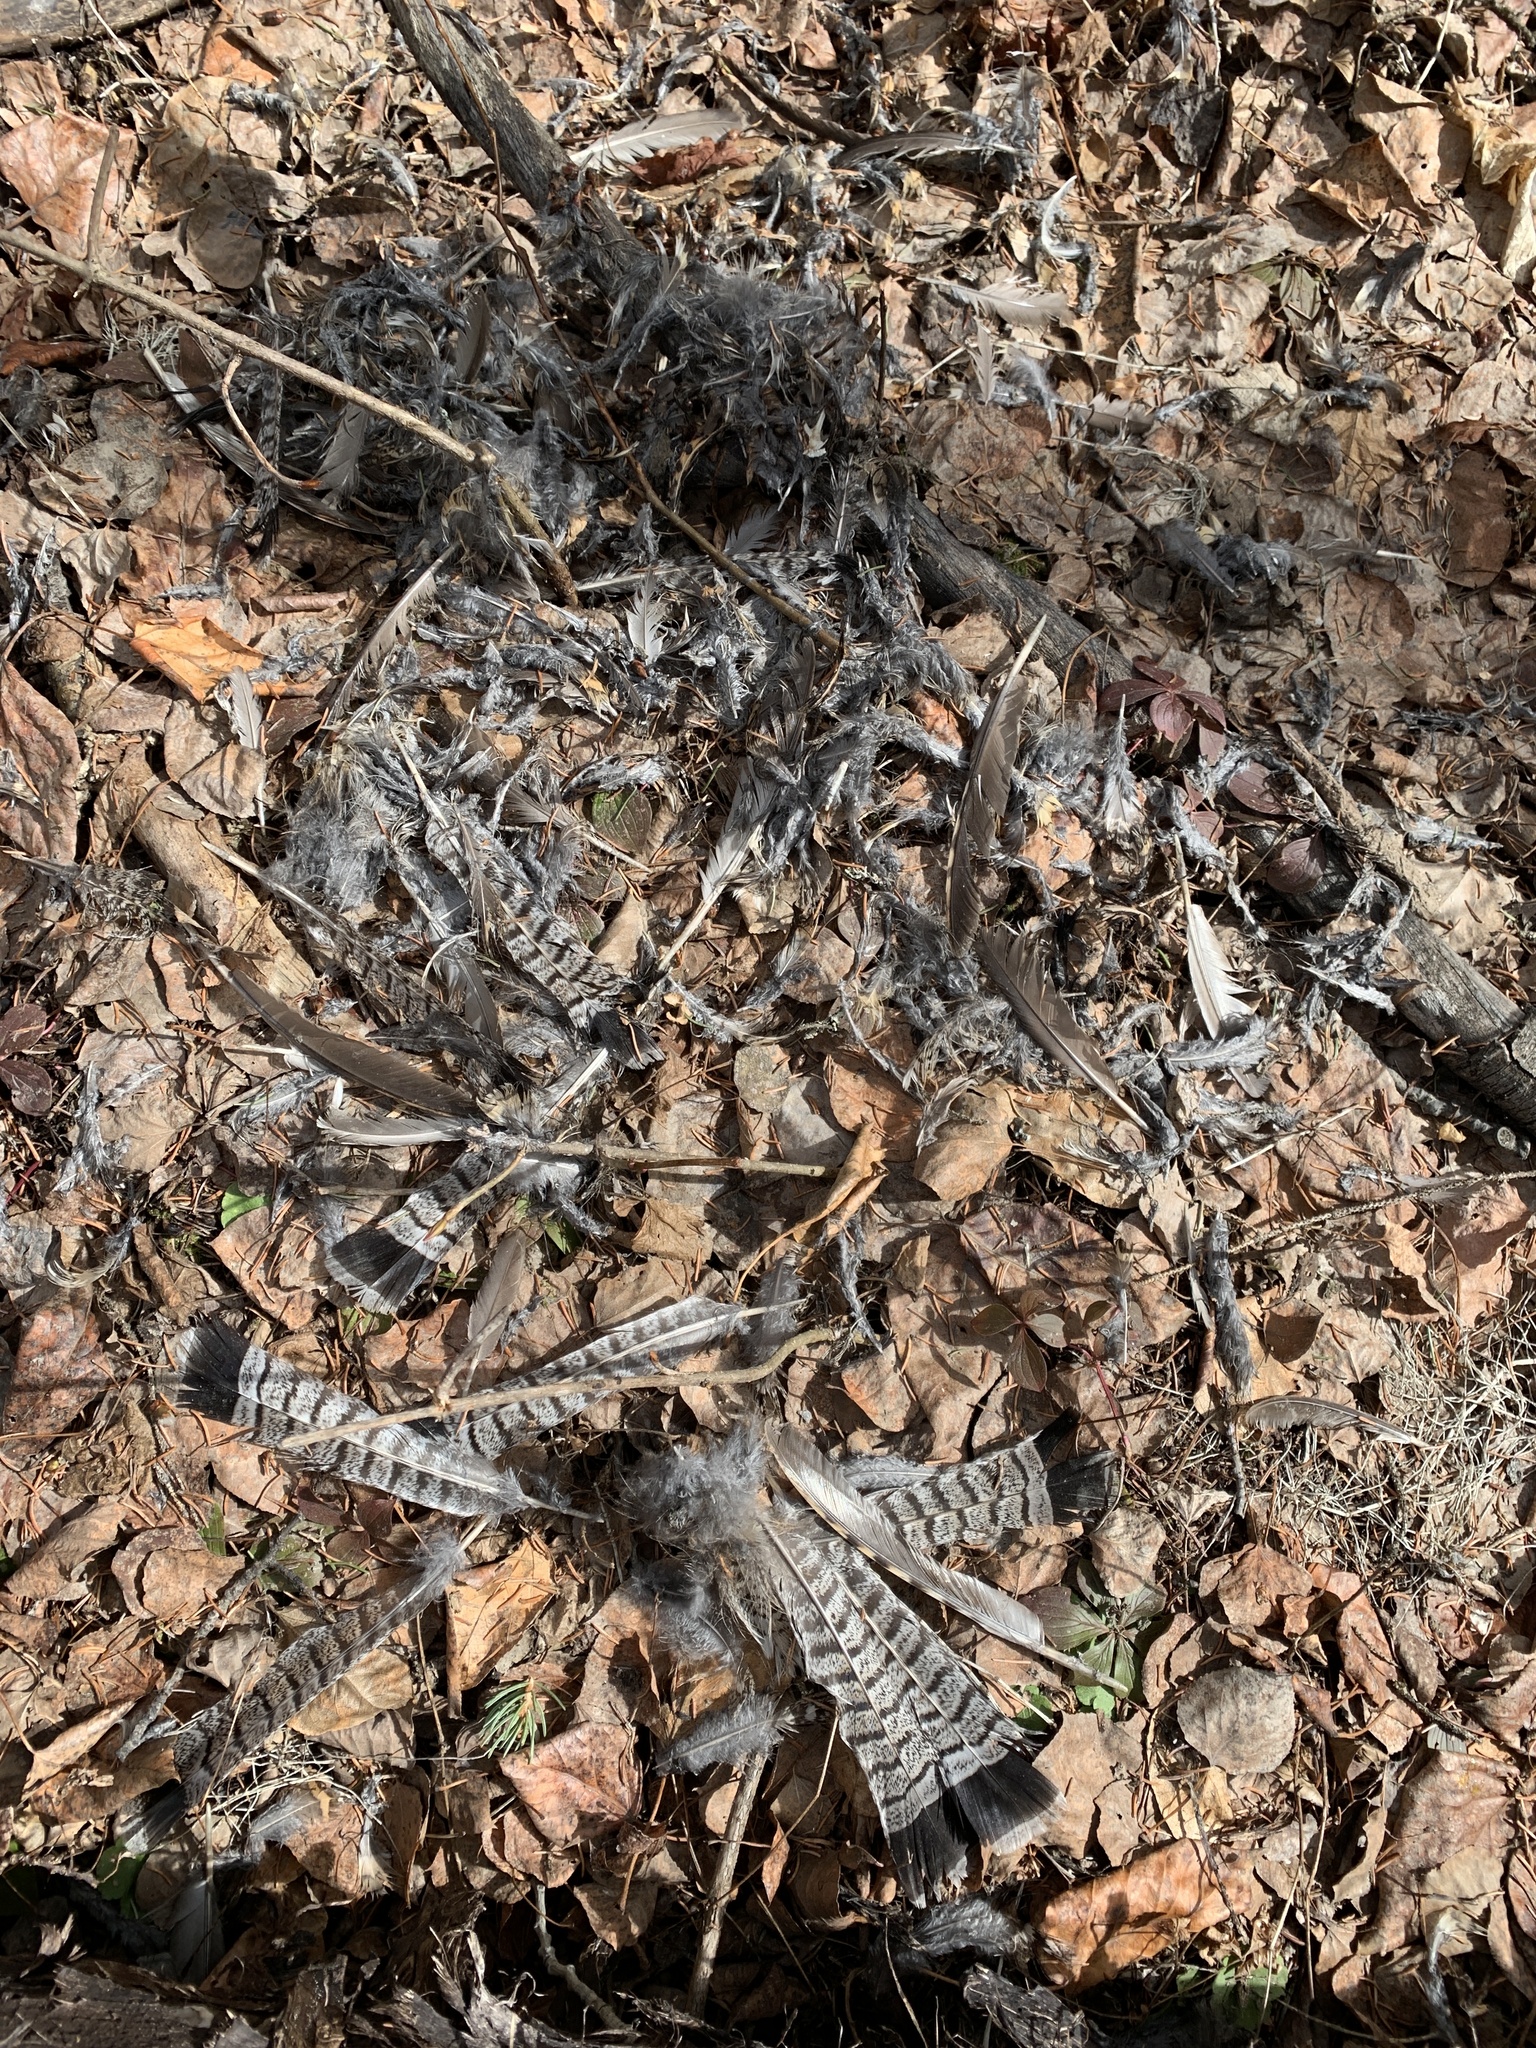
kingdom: Animalia
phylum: Chordata
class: Aves
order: Galliformes
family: Phasianidae
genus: Bonasa
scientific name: Bonasa umbellus
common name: Ruffed grouse
